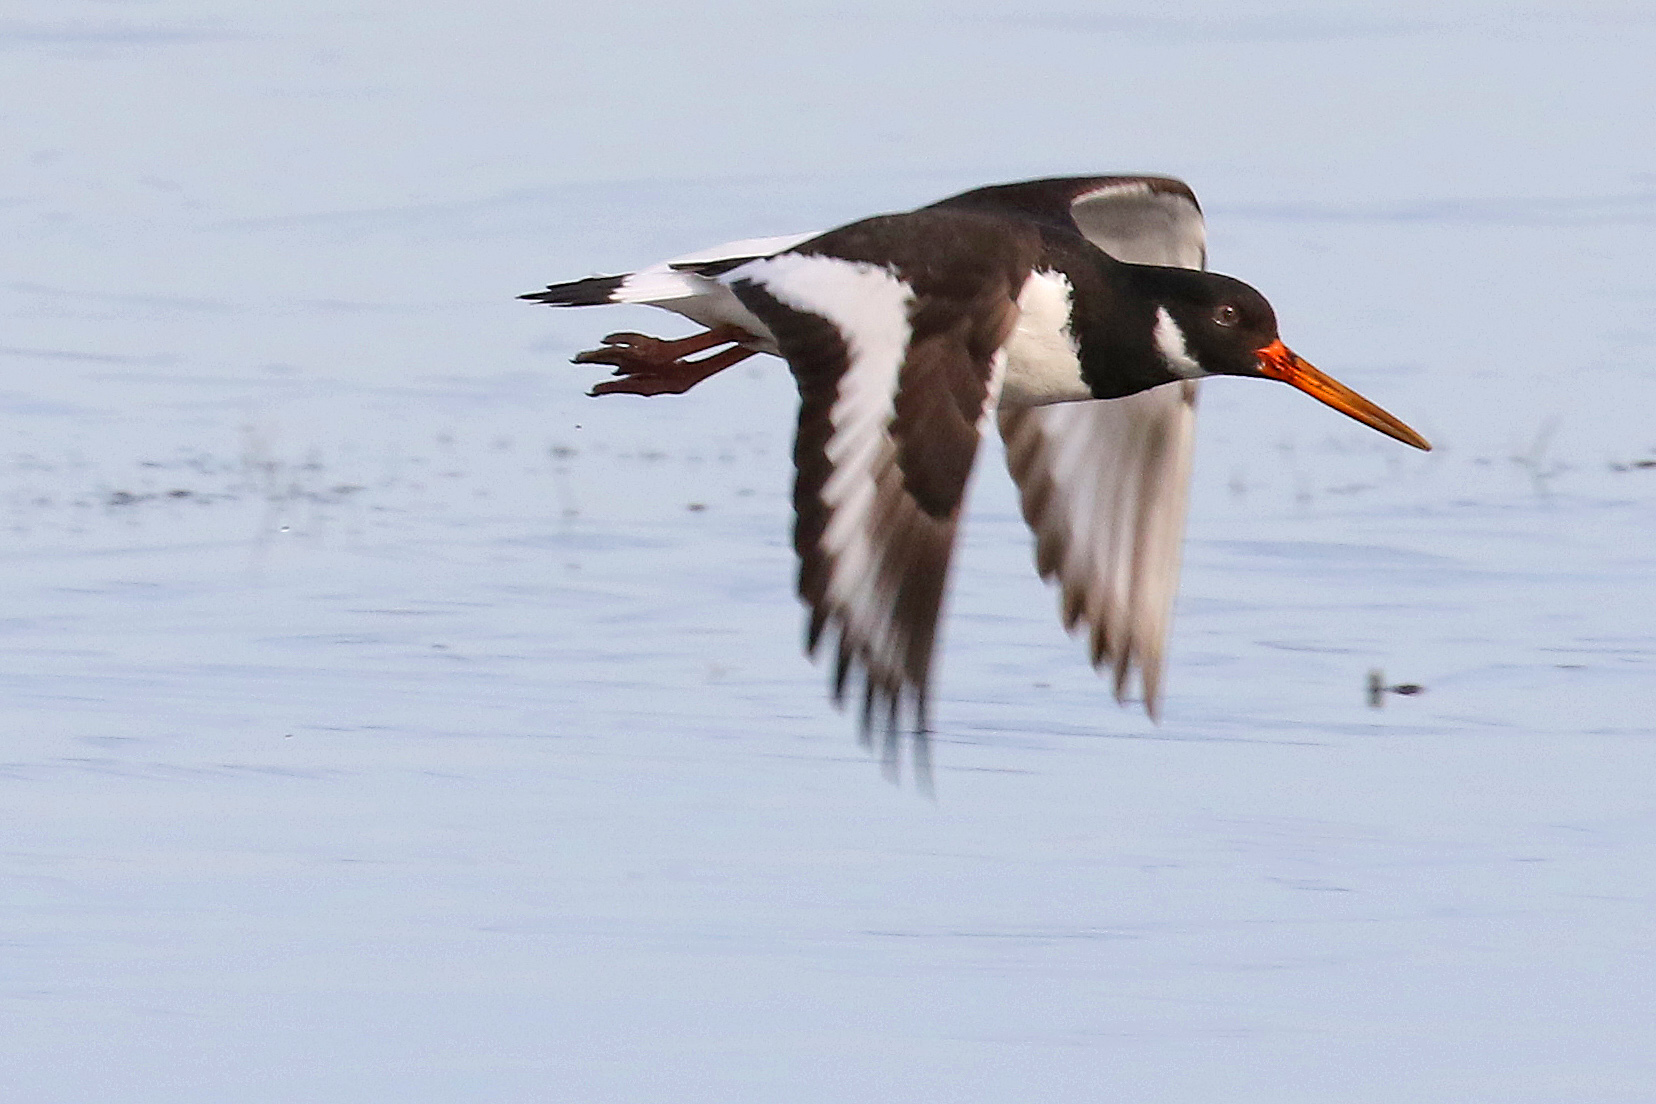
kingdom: Animalia
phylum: Chordata
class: Aves
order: Charadriiformes
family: Haematopodidae
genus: Haematopus
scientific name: Haematopus ostralegus
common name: Eurasian oystercatcher
